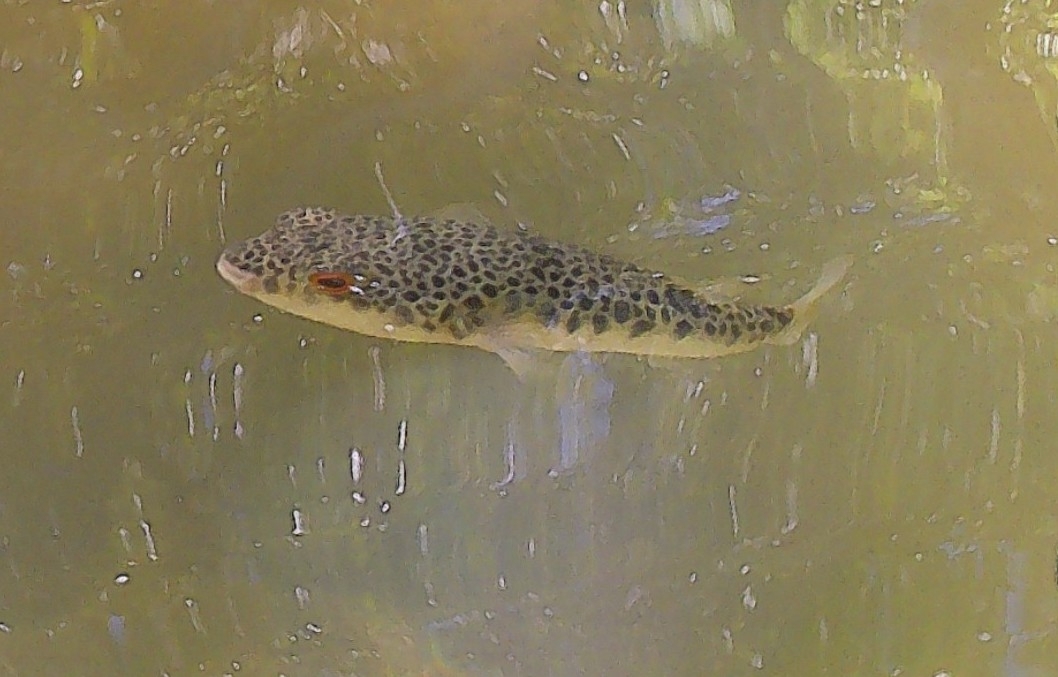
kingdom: Animalia
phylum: Chordata
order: Tetraodontiformes
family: Tetraodontidae
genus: Tetractenos
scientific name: Tetractenos hamiltoni
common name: Common toadfish
